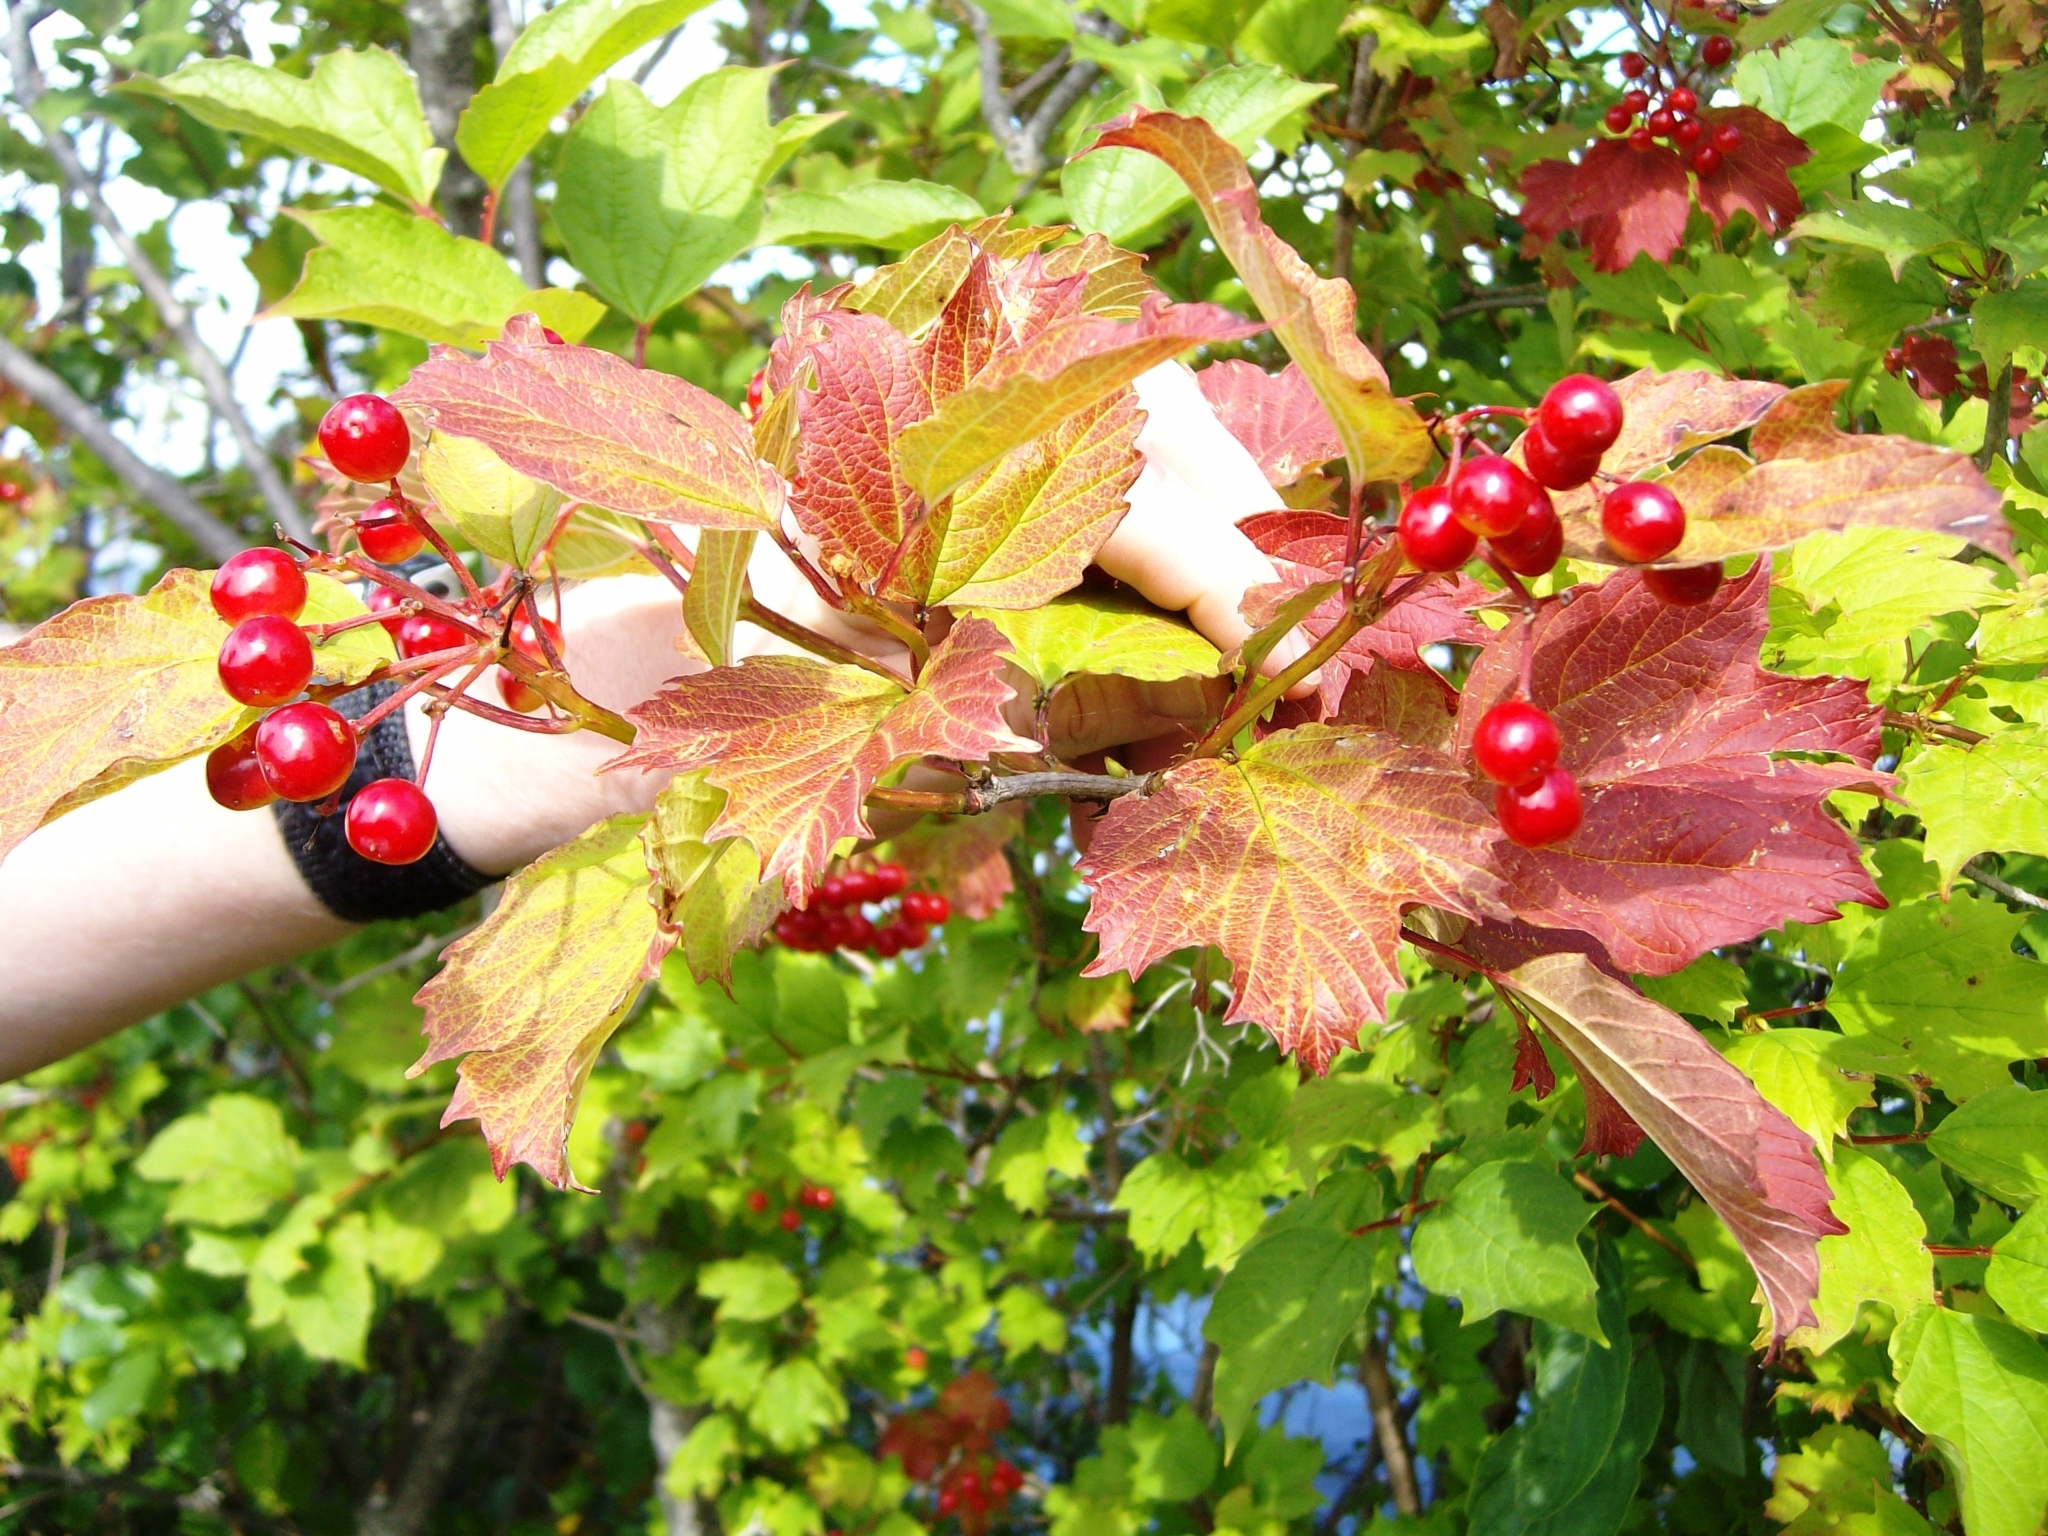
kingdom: Plantae
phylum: Tracheophyta
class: Magnoliopsida
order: Dipsacales
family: Viburnaceae
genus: Viburnum
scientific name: Viburnum opulus
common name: Guelder-rose
